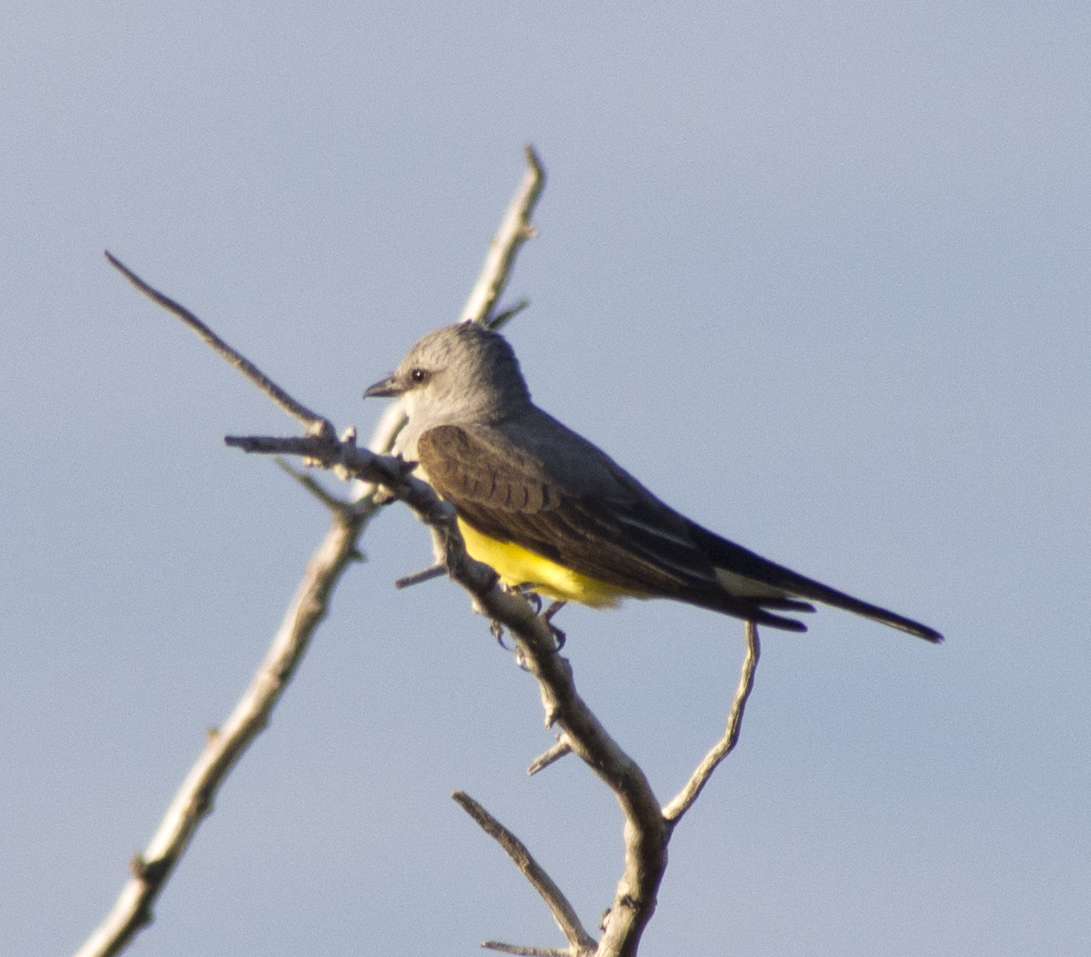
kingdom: Animalia
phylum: Chordata
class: Aves
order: Passeriformes
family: Tyrannidae
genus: Tyrannus
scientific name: Tyrannus verticalis
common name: Western kingbird
